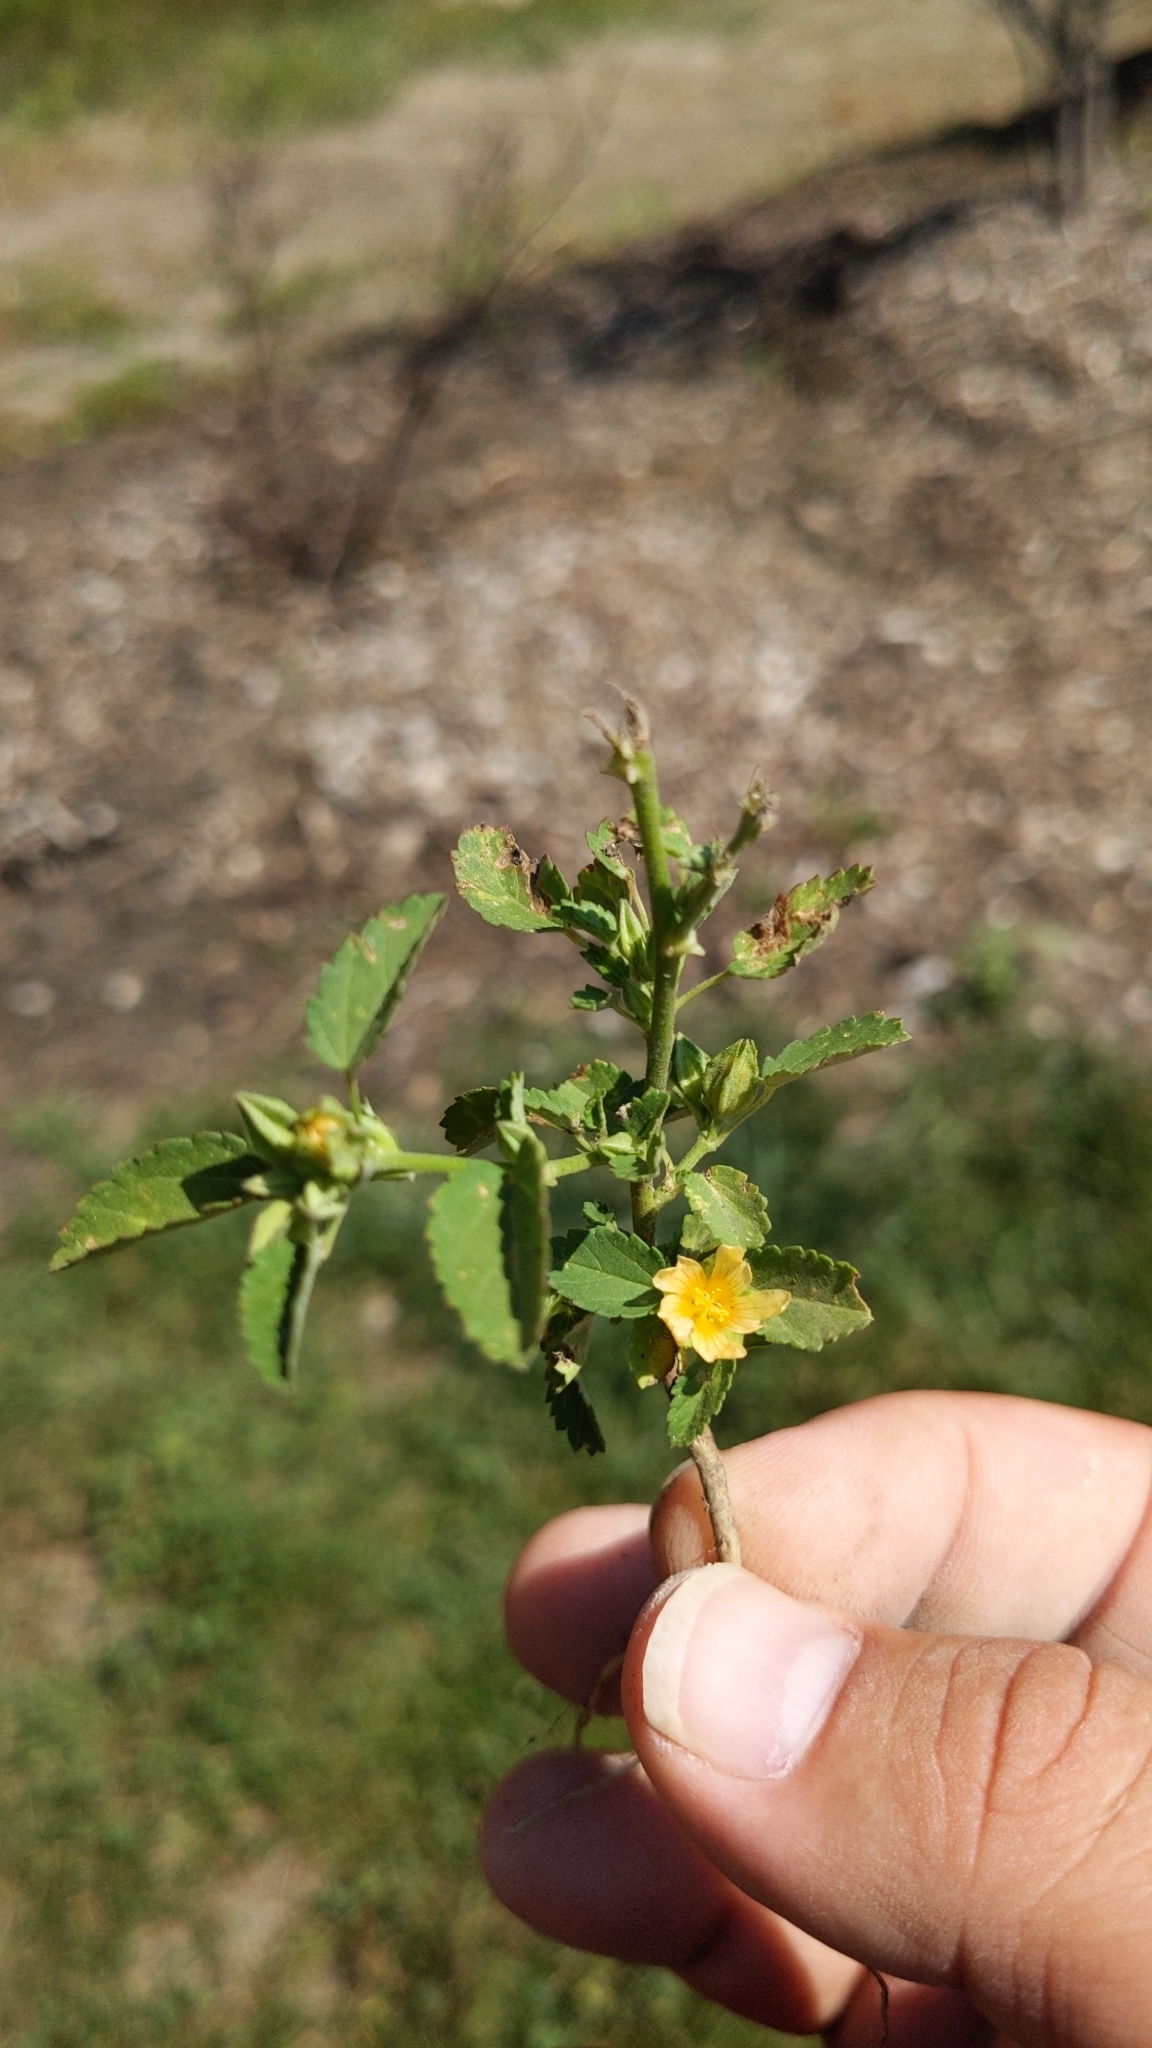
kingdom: Plantae
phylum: Tracheophyta
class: Magnoliopsida
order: Malvales
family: Malvaceae
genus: Sida
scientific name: Sida spinosa
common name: Prickly fanpetals
